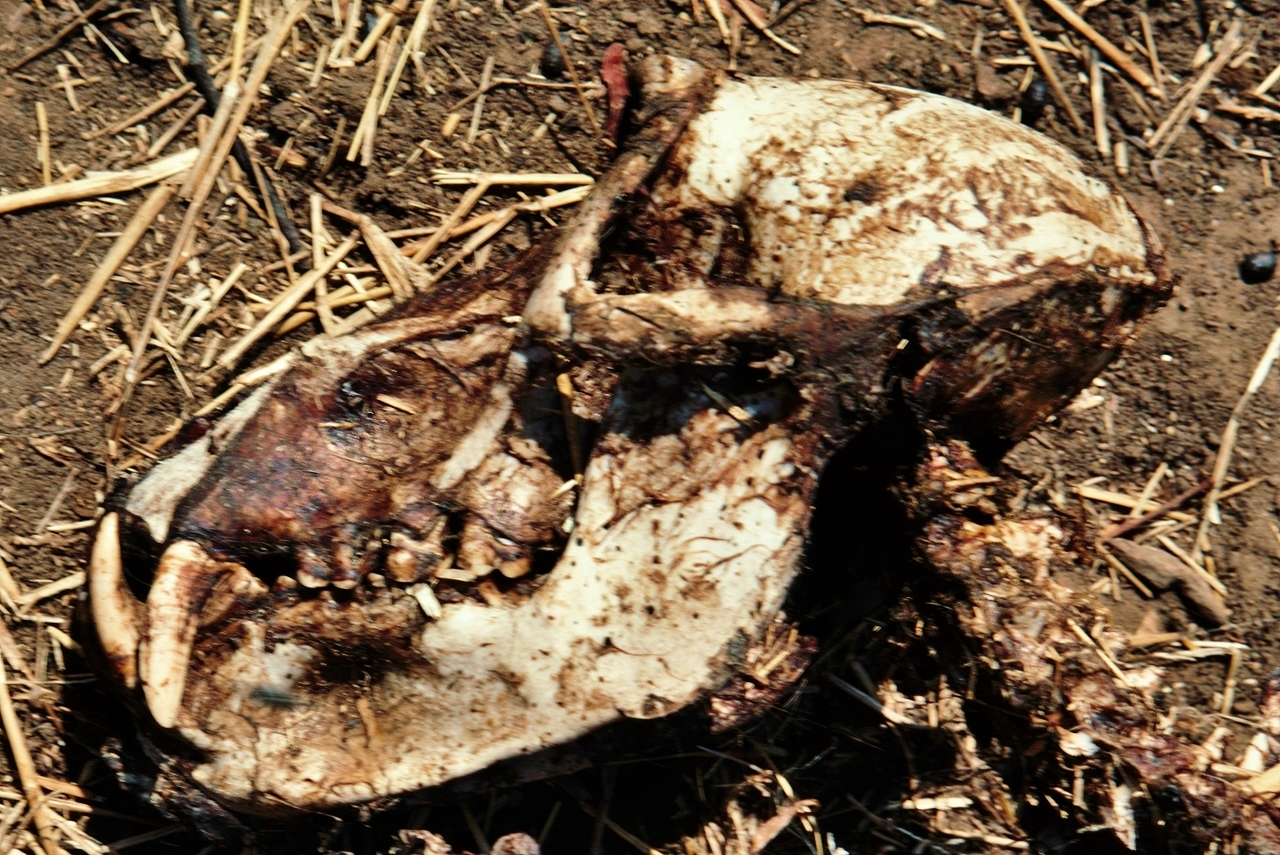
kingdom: Animalia
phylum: Chordata
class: Mammalia
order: Primates
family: Cercopithecidae
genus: Papio
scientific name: Papio ursinus
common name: Chacma baboon
